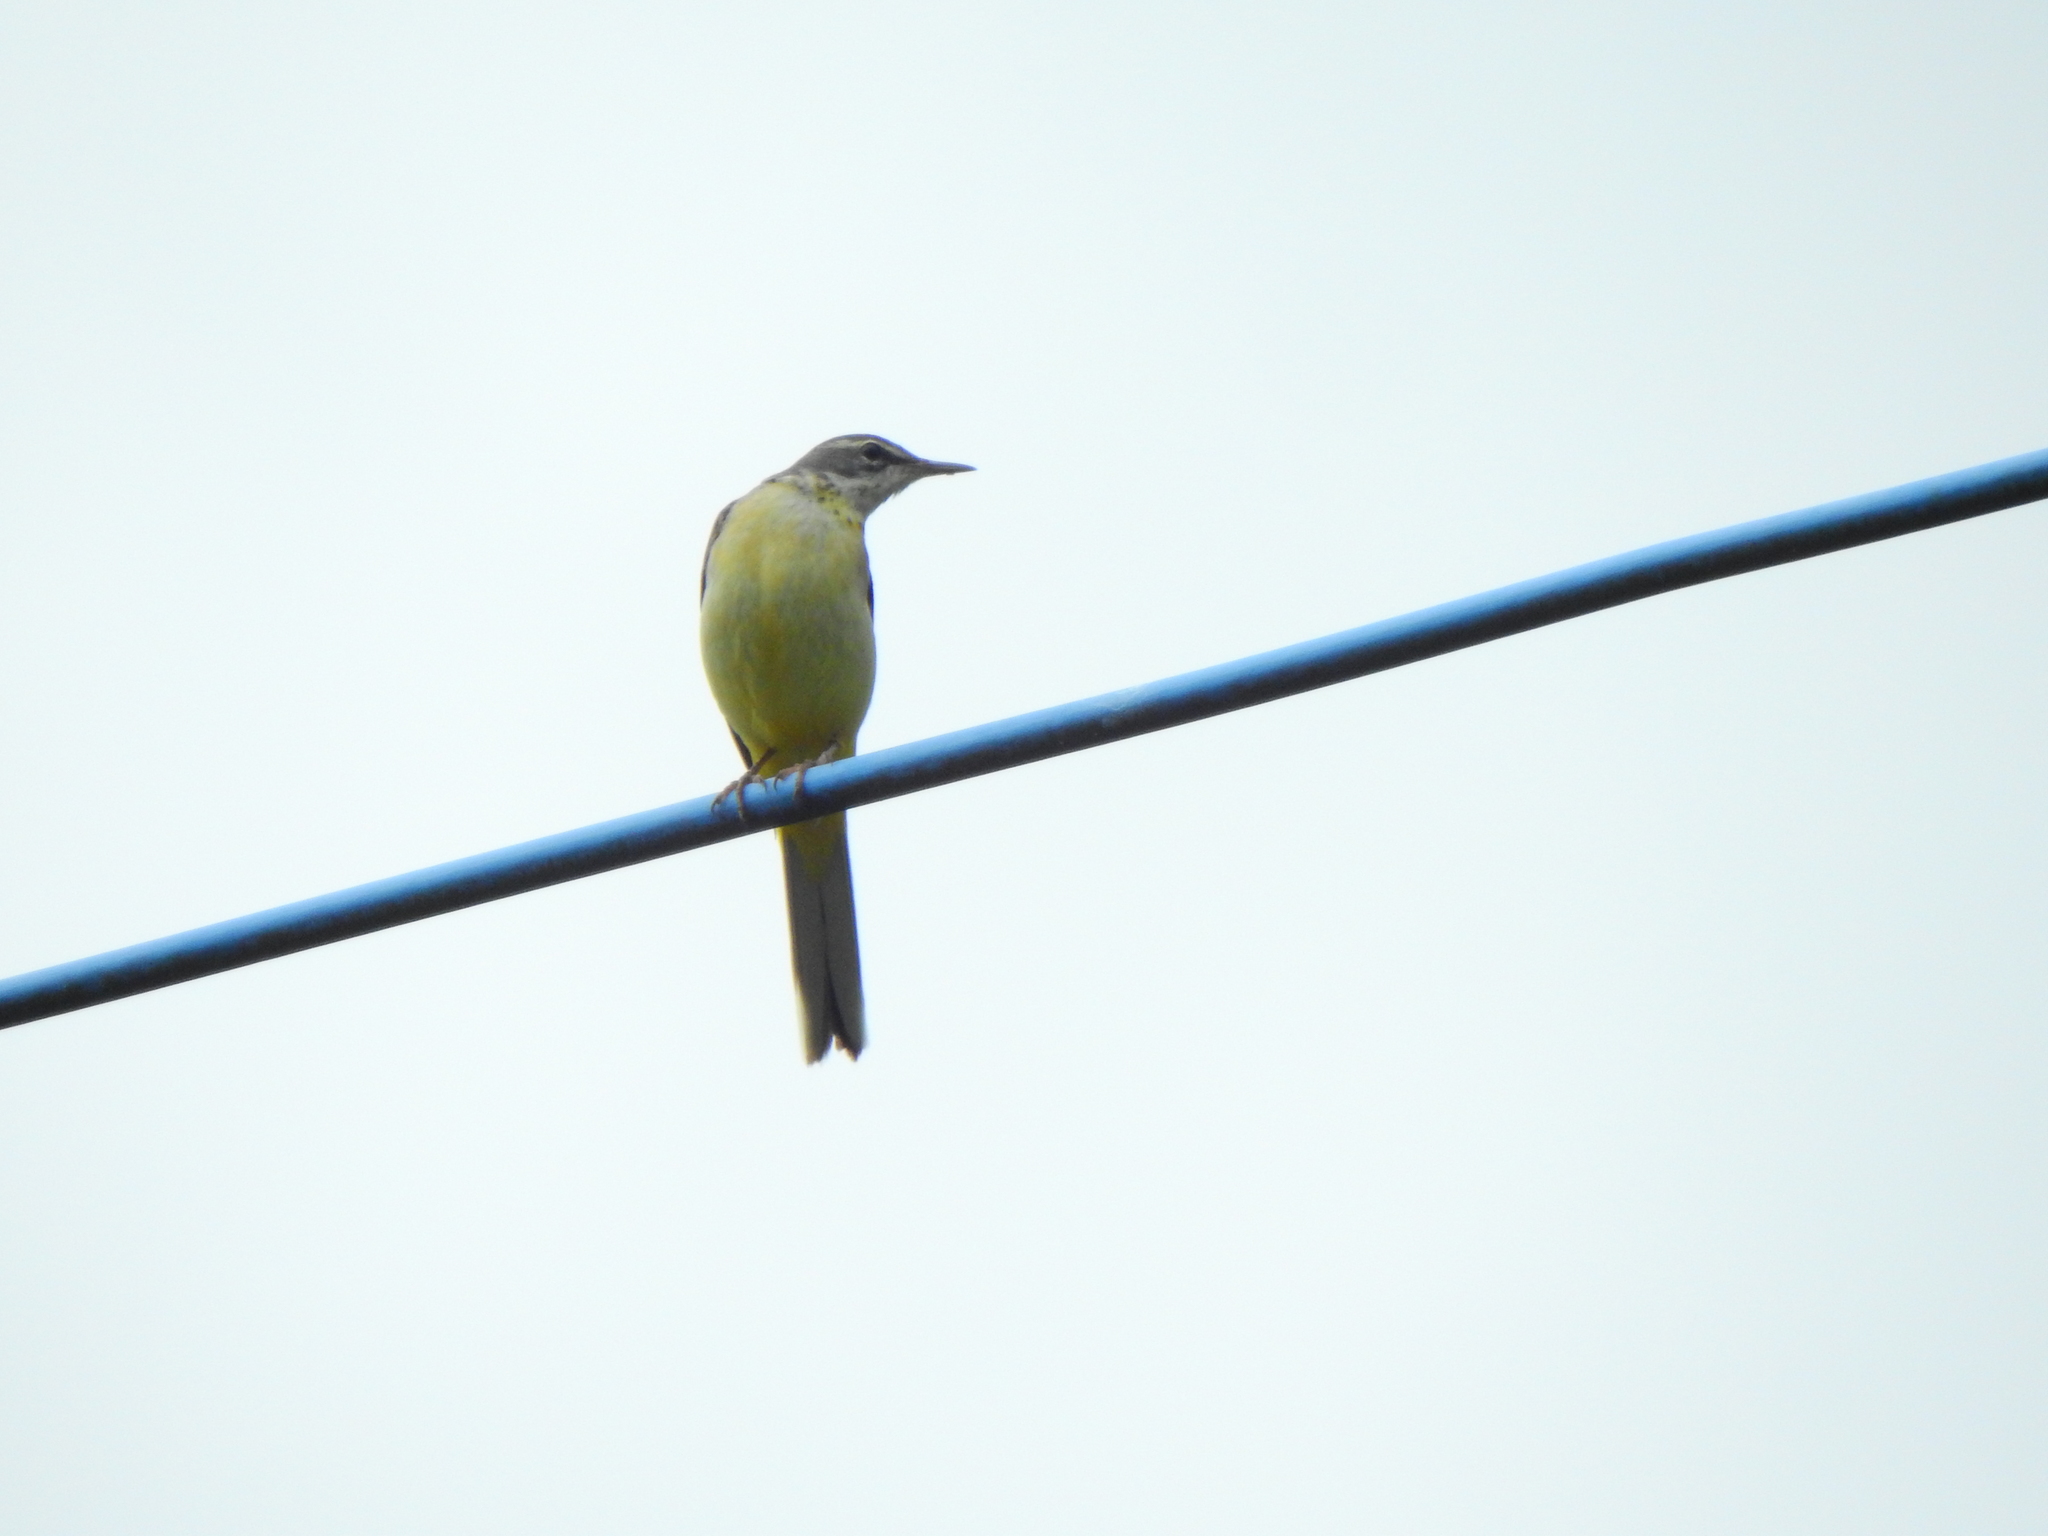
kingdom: Animalia
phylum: Chordata
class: Aves
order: Passeriformes
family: Motacillidae
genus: Motacilla
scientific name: Motacilla cinerea
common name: Grey wagtail
